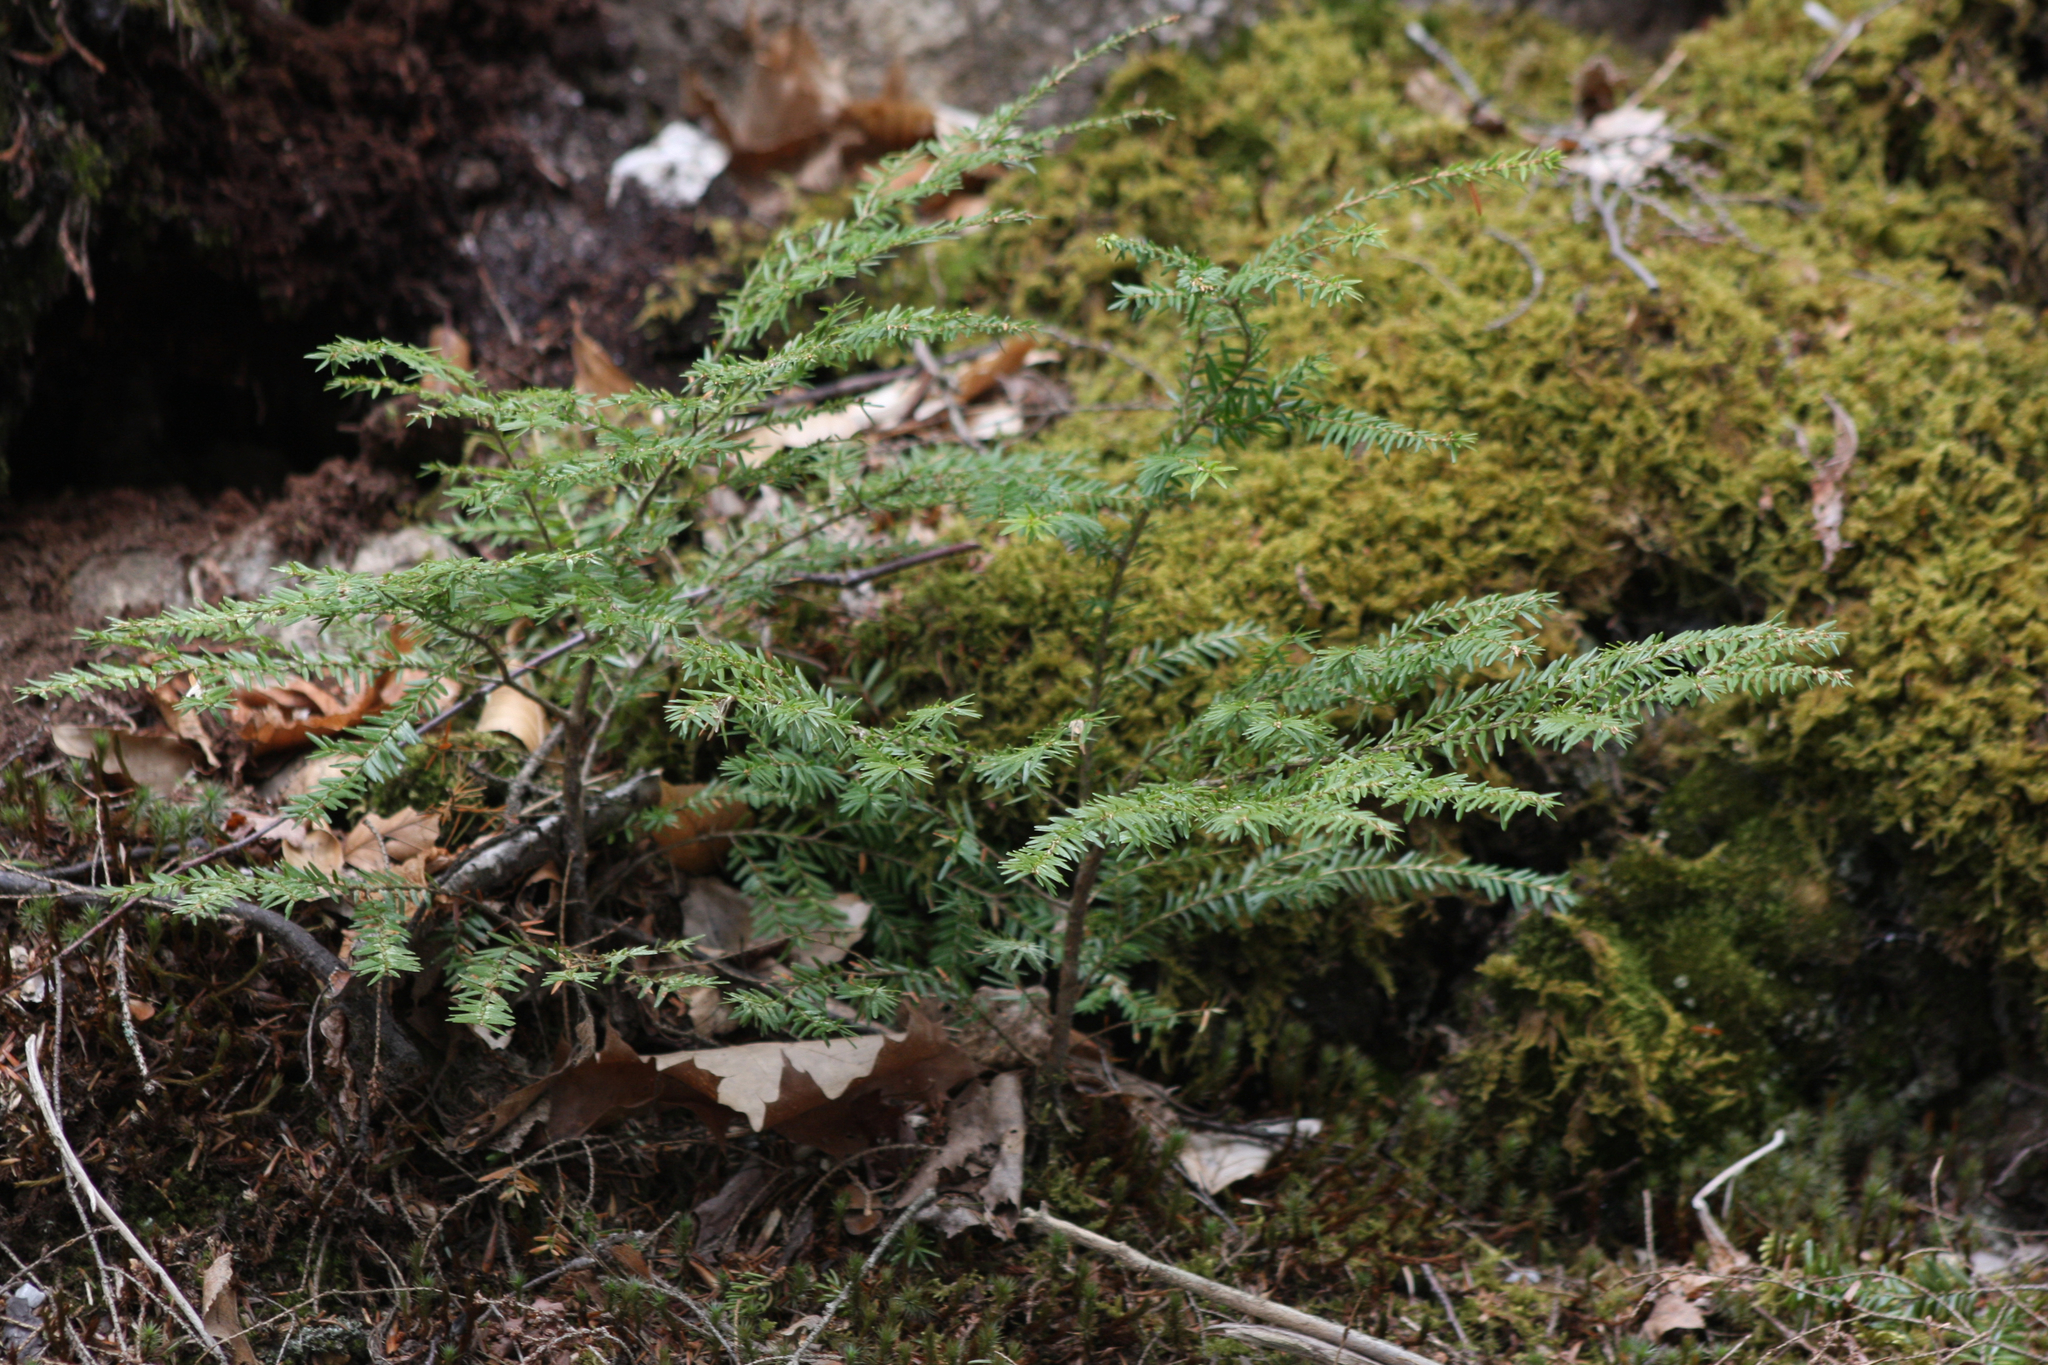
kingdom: Plantae
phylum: Tracheophyta
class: Pinopsida
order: Pinales
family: Pinaceae
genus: Tsuga
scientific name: Tsuga canadensis
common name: Eastern hemlock
